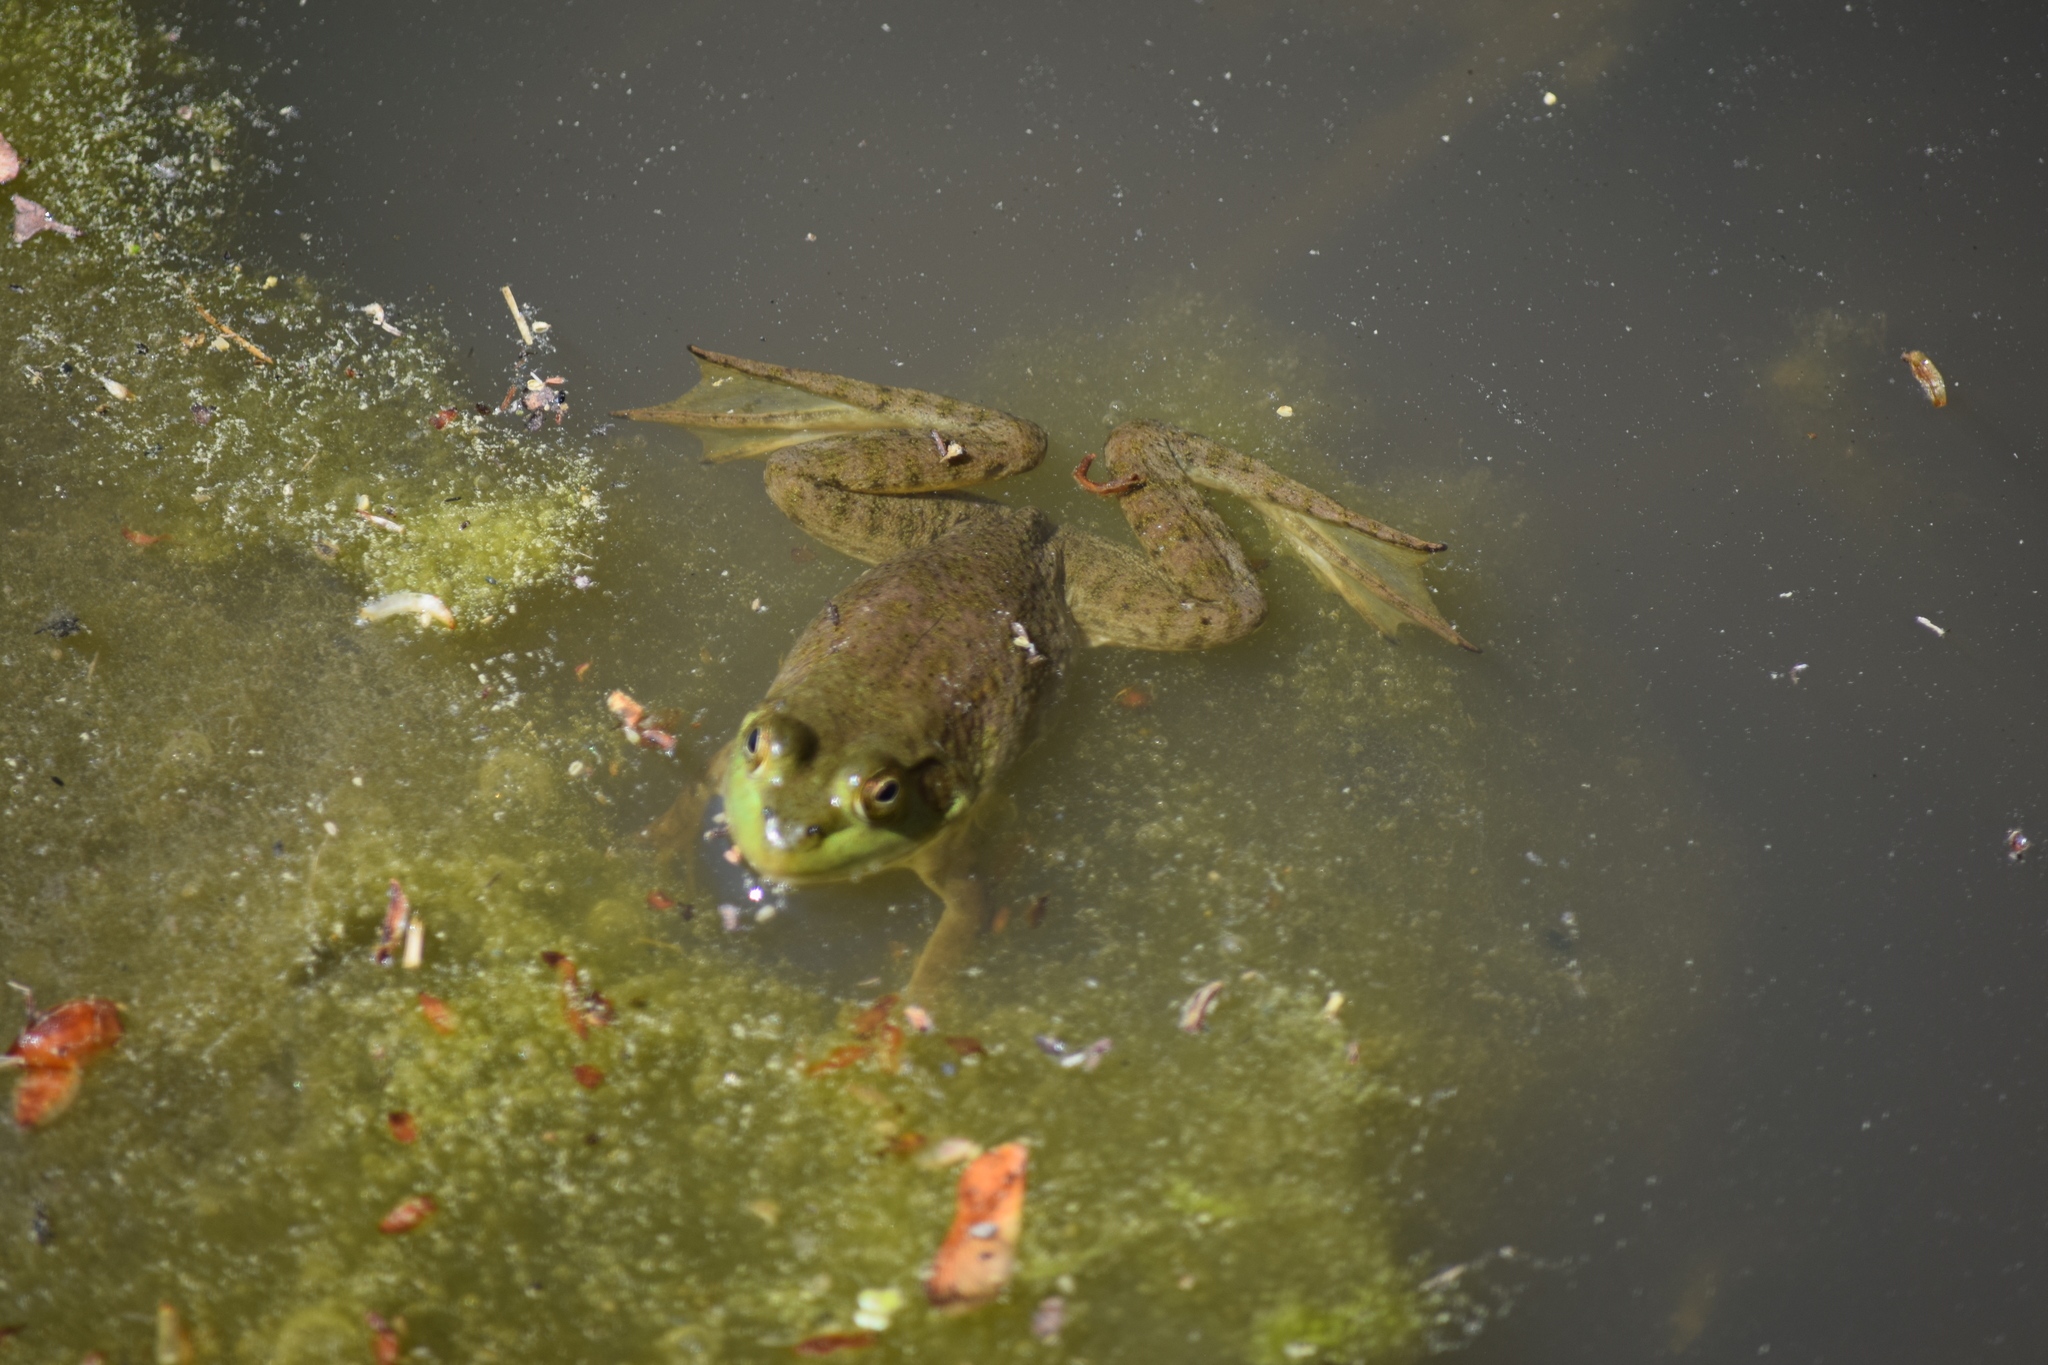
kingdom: Animalia
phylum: Chordata
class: Amphibia
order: Anura
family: Ranidae
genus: Lithobates
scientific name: Lithobates catesbeianus
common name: American bullfrog
